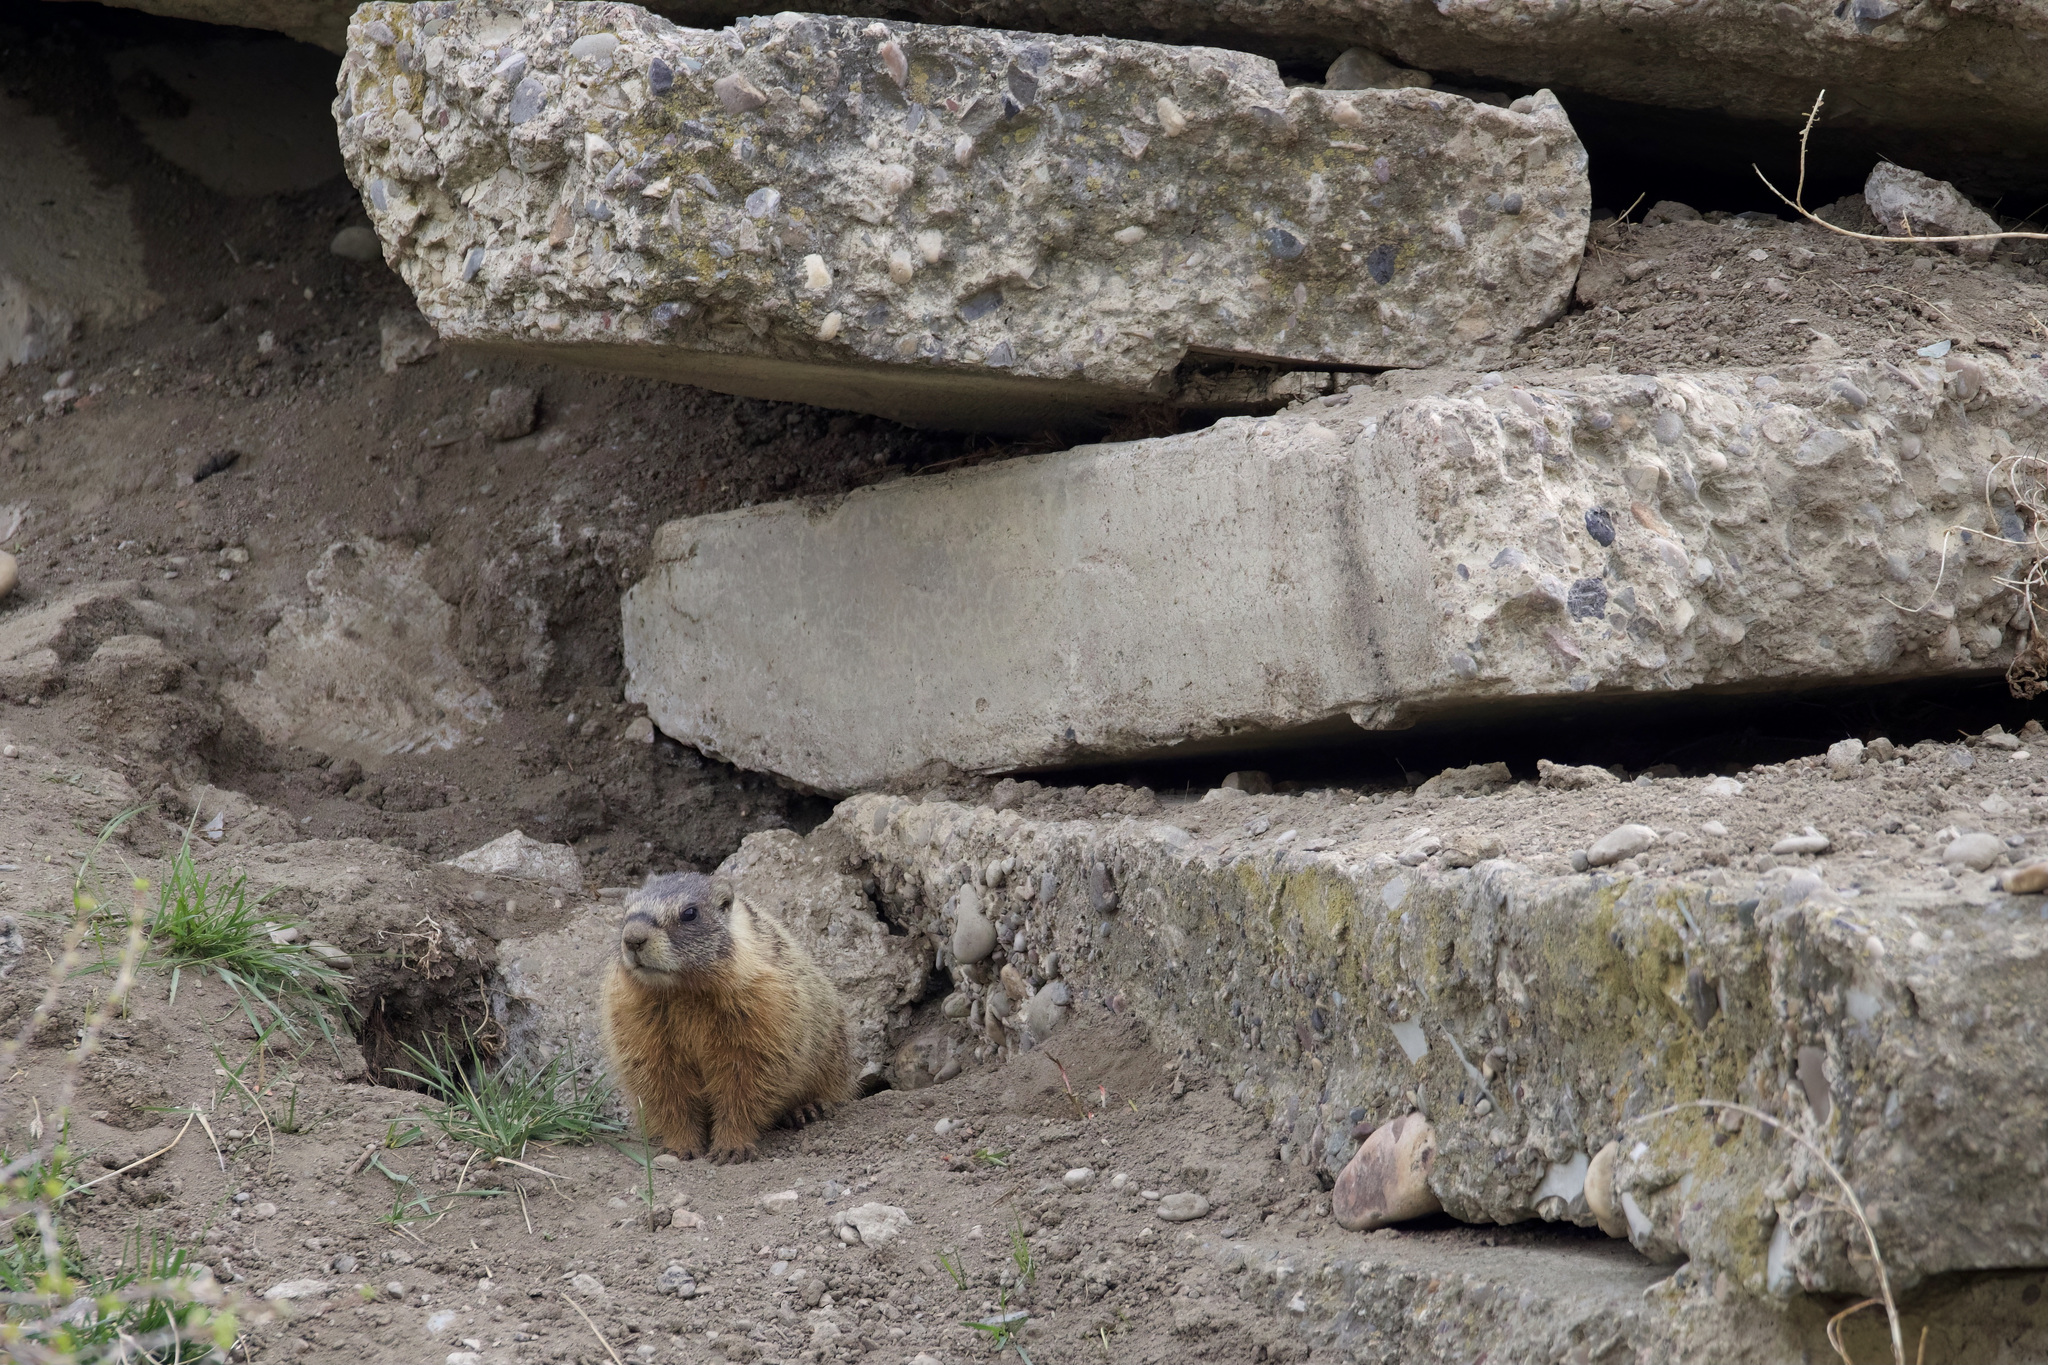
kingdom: Animalia
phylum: Chordata
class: Mammalia
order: Rodentia
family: Sciuridae
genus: Marmota
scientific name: Marmota flaviventris
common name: Yellow-bellied marmot
